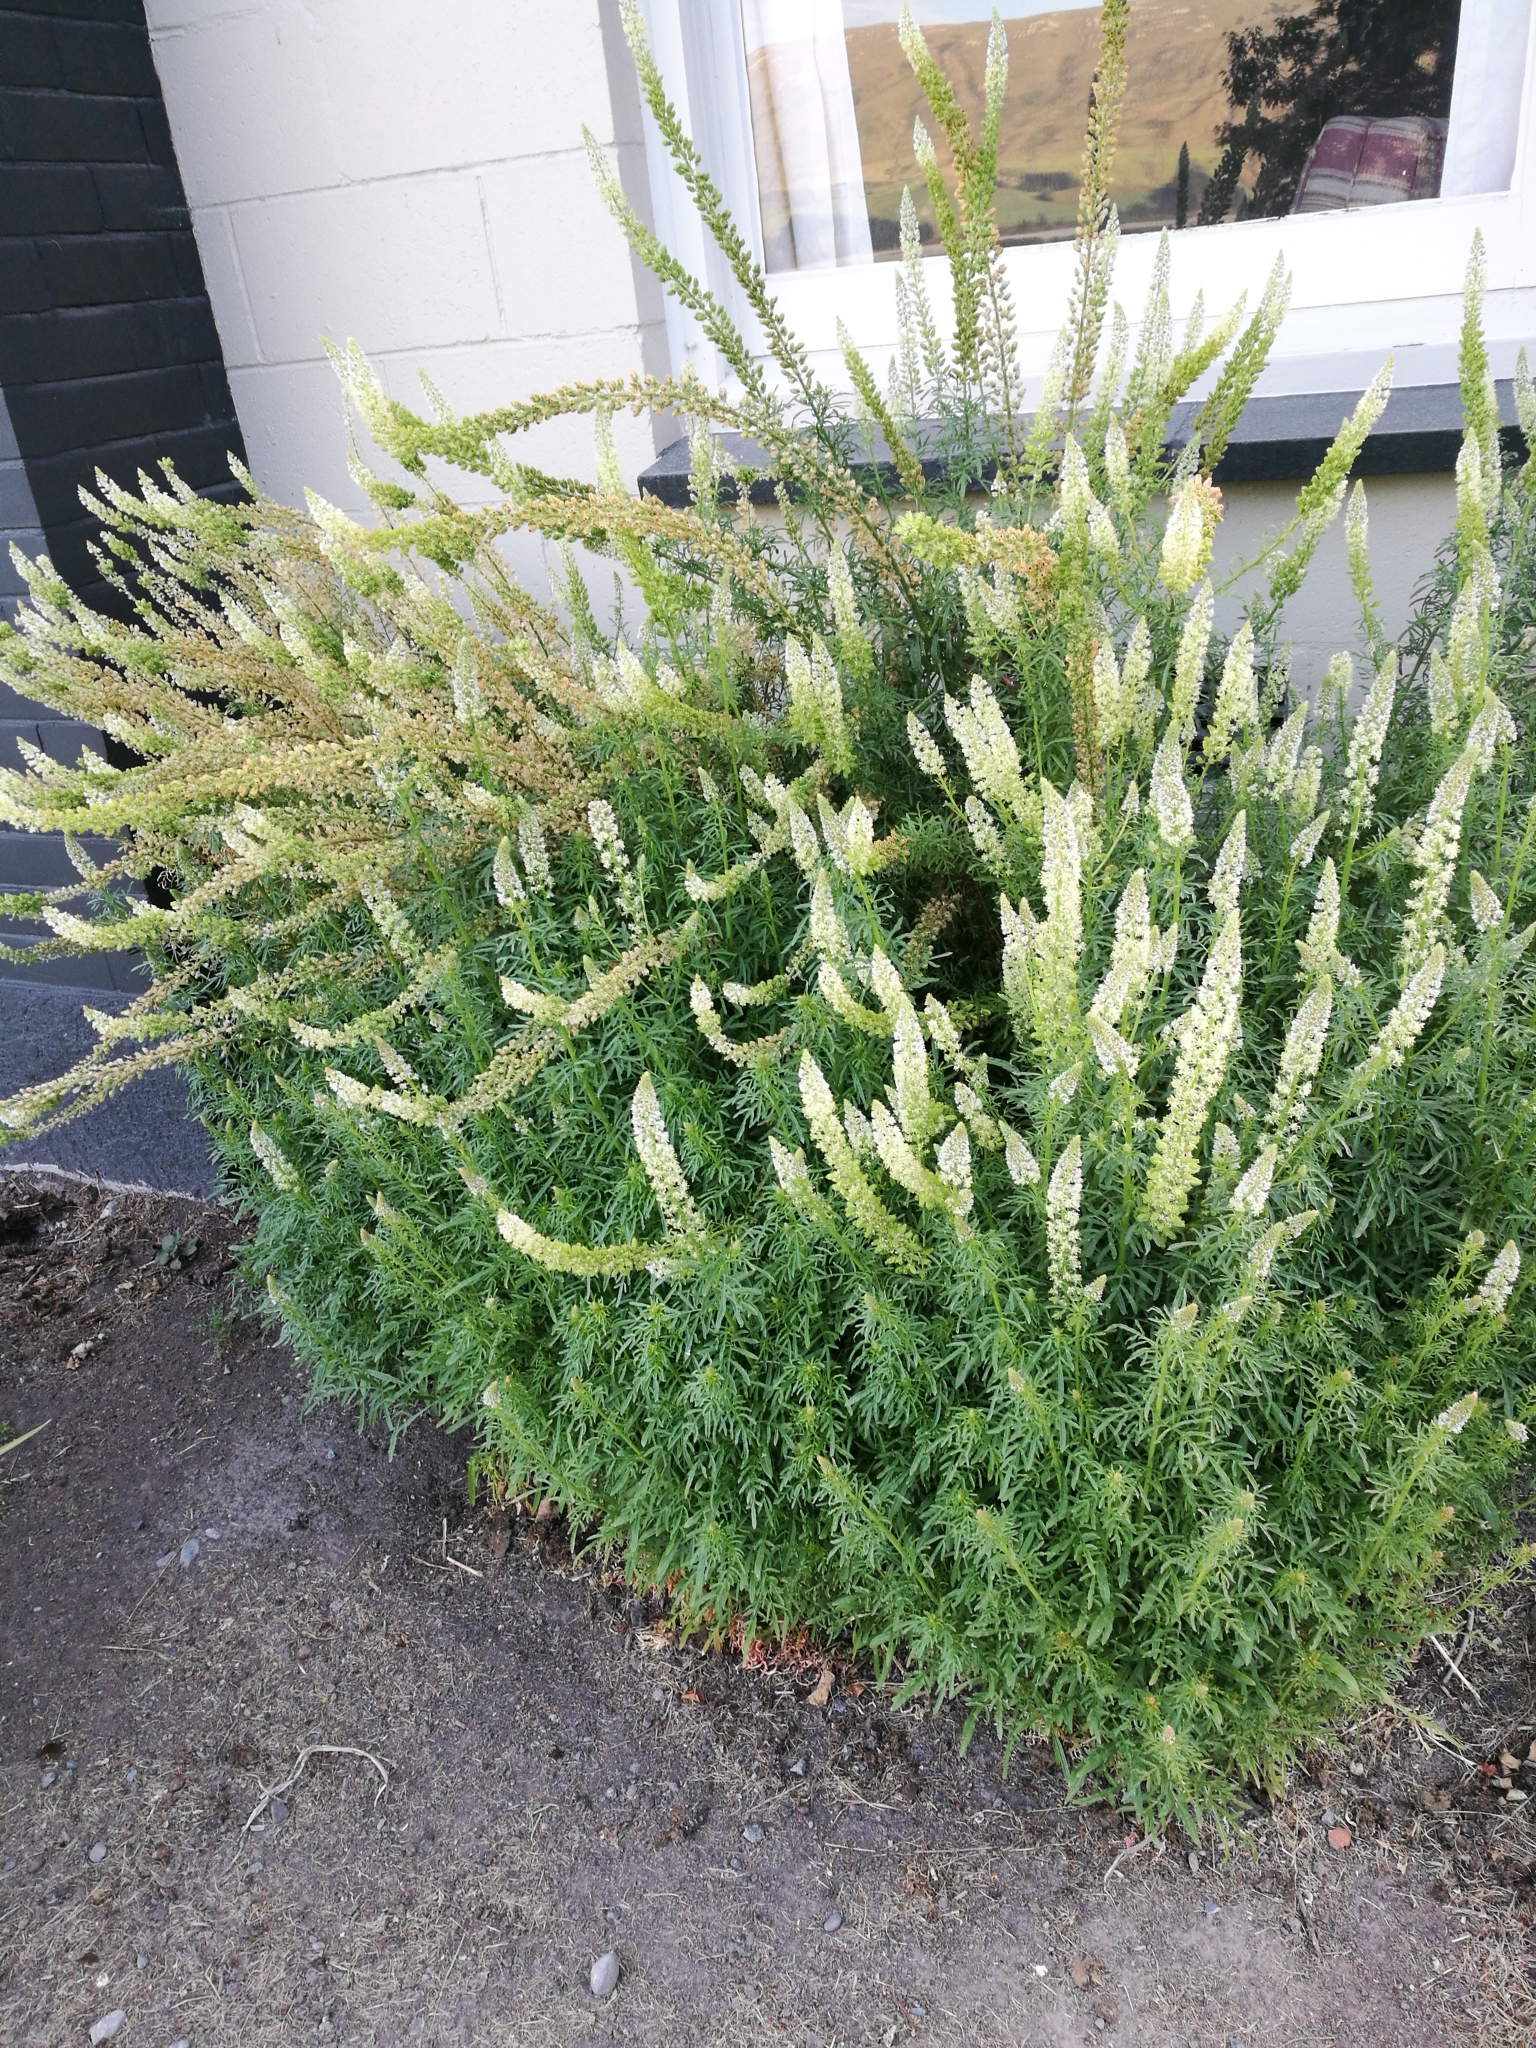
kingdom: Plantae
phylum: Tracheophyta
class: Magnoliopsida
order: Brassicales
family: Resedaceae
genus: Reseda
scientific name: Reseda alba
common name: White mignonette
